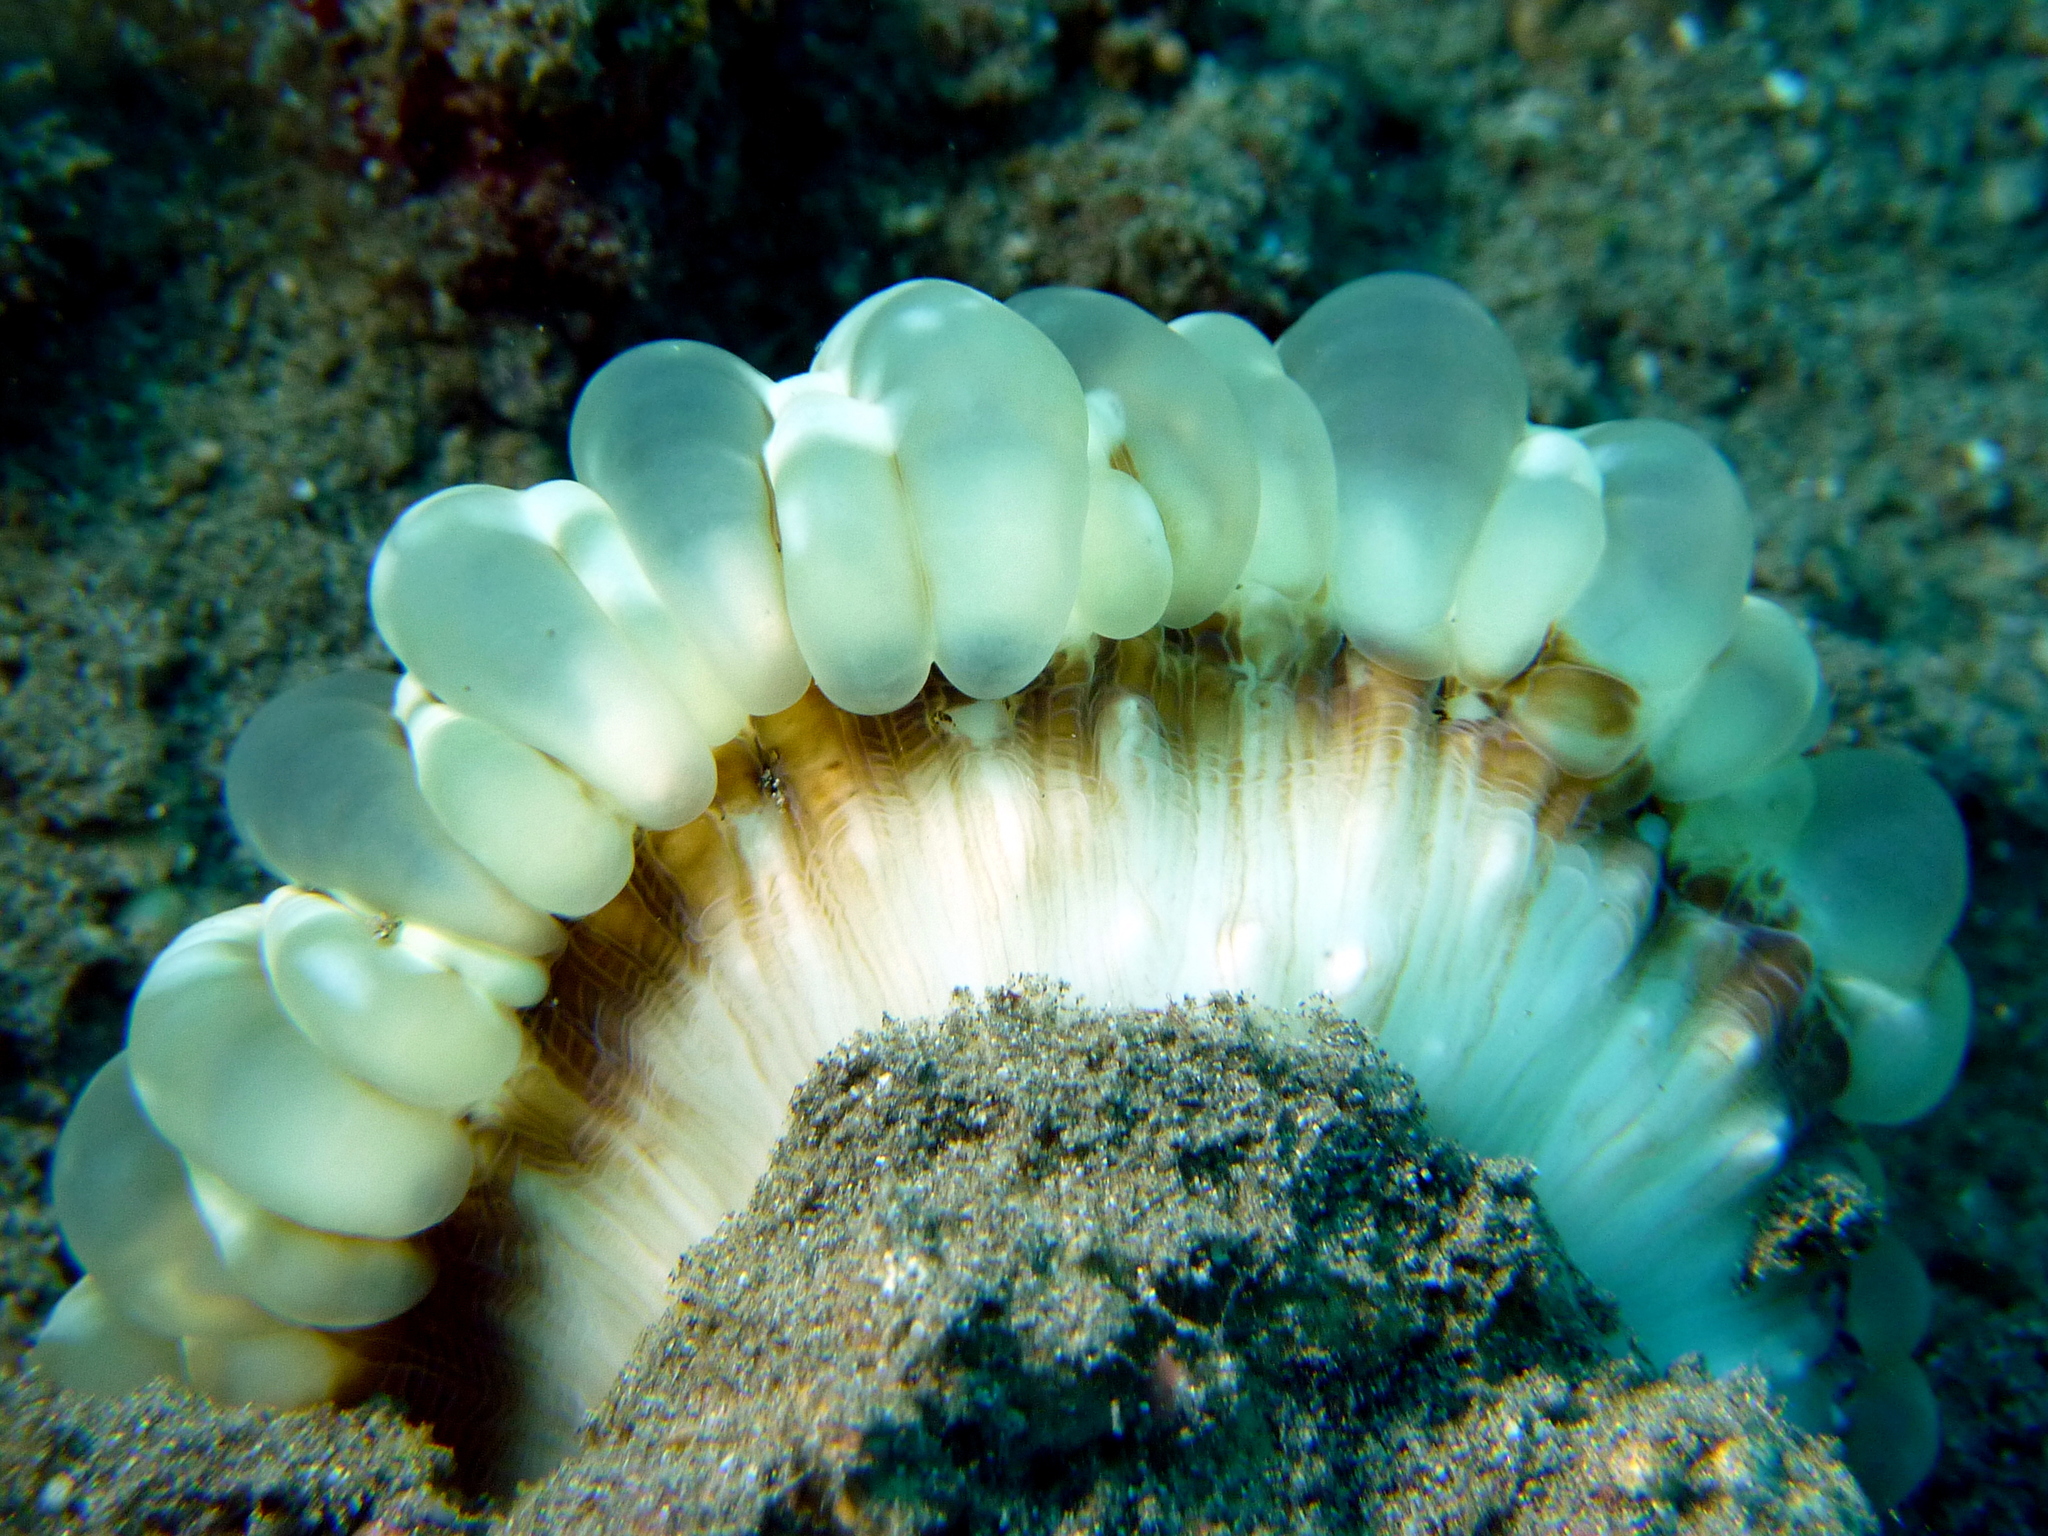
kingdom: Animalia
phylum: Cnidaria
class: Anthozoa
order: Scleractinia
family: Lobophylliidae
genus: Cynarina
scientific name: Cynarina lacrymalis
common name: Solitary cup coral
